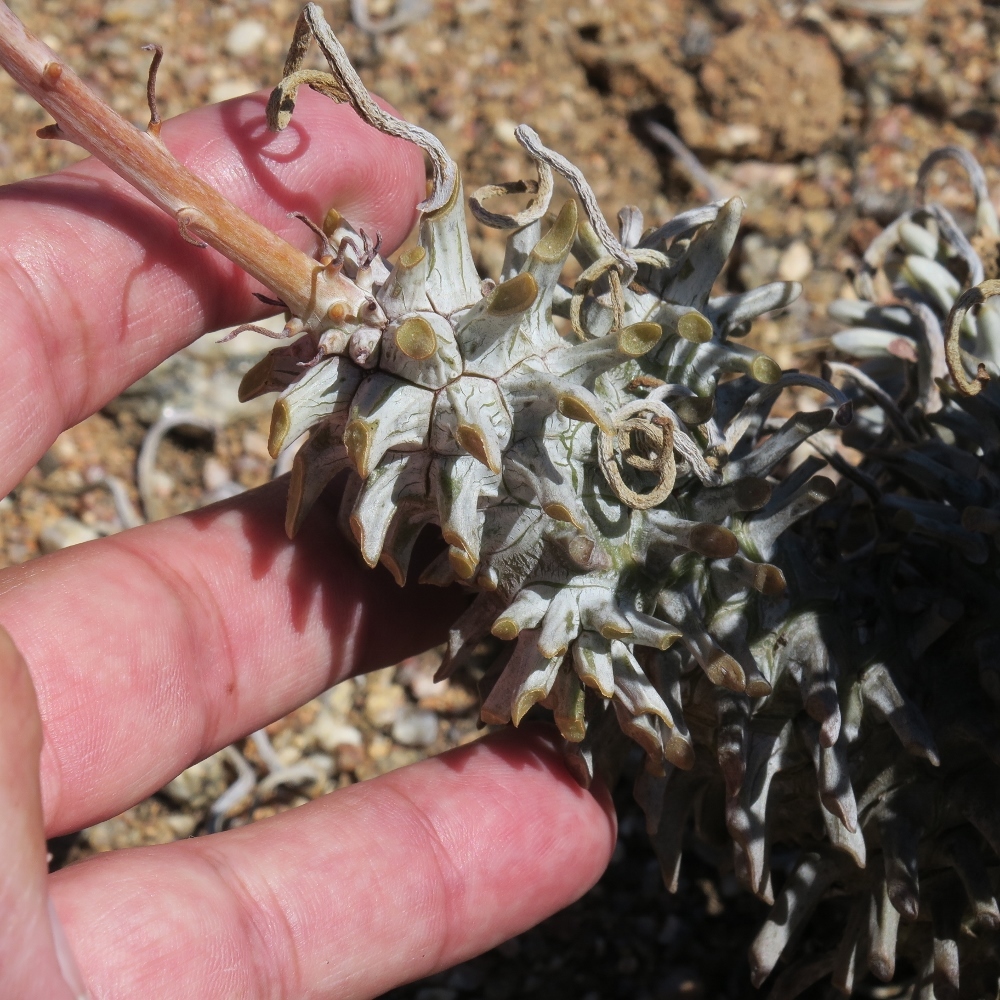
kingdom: Plantae
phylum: Tracheophyta
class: Magnoliopsida
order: Saxifragales
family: Crassulaceae
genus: Tylecodon
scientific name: Tylecodon wallichii
